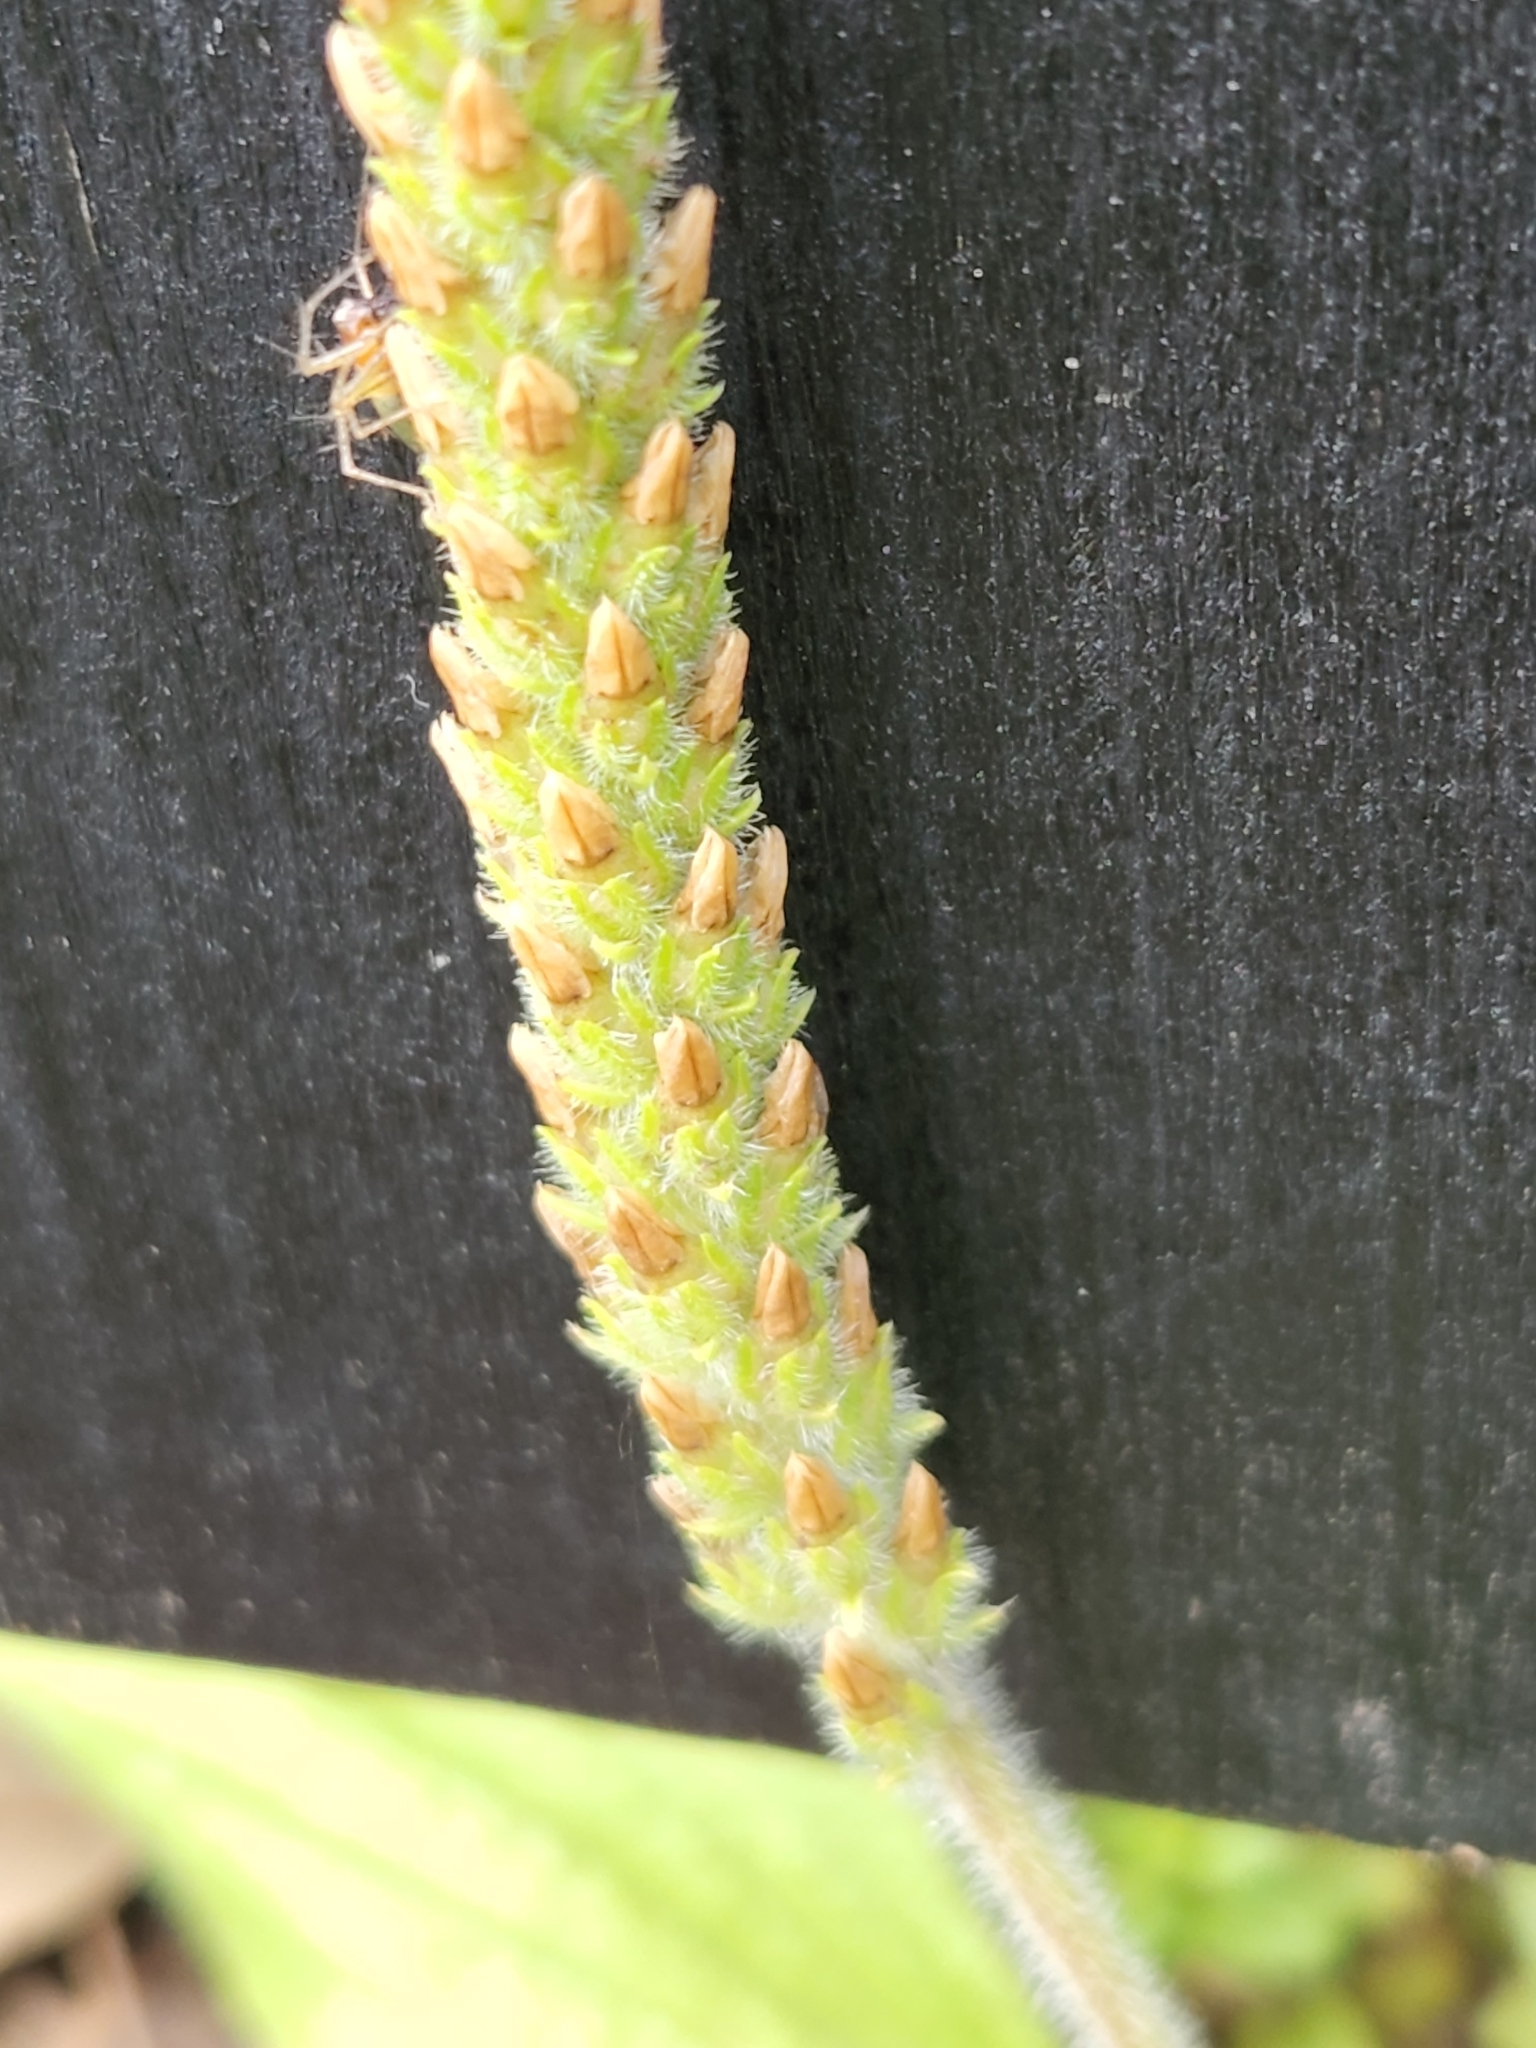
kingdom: Plantae
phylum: Tracheophyta
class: Magnoliopsida
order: Lamiales
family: Plantaginaceae
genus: Plantago
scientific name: Plantago rhodosperma
